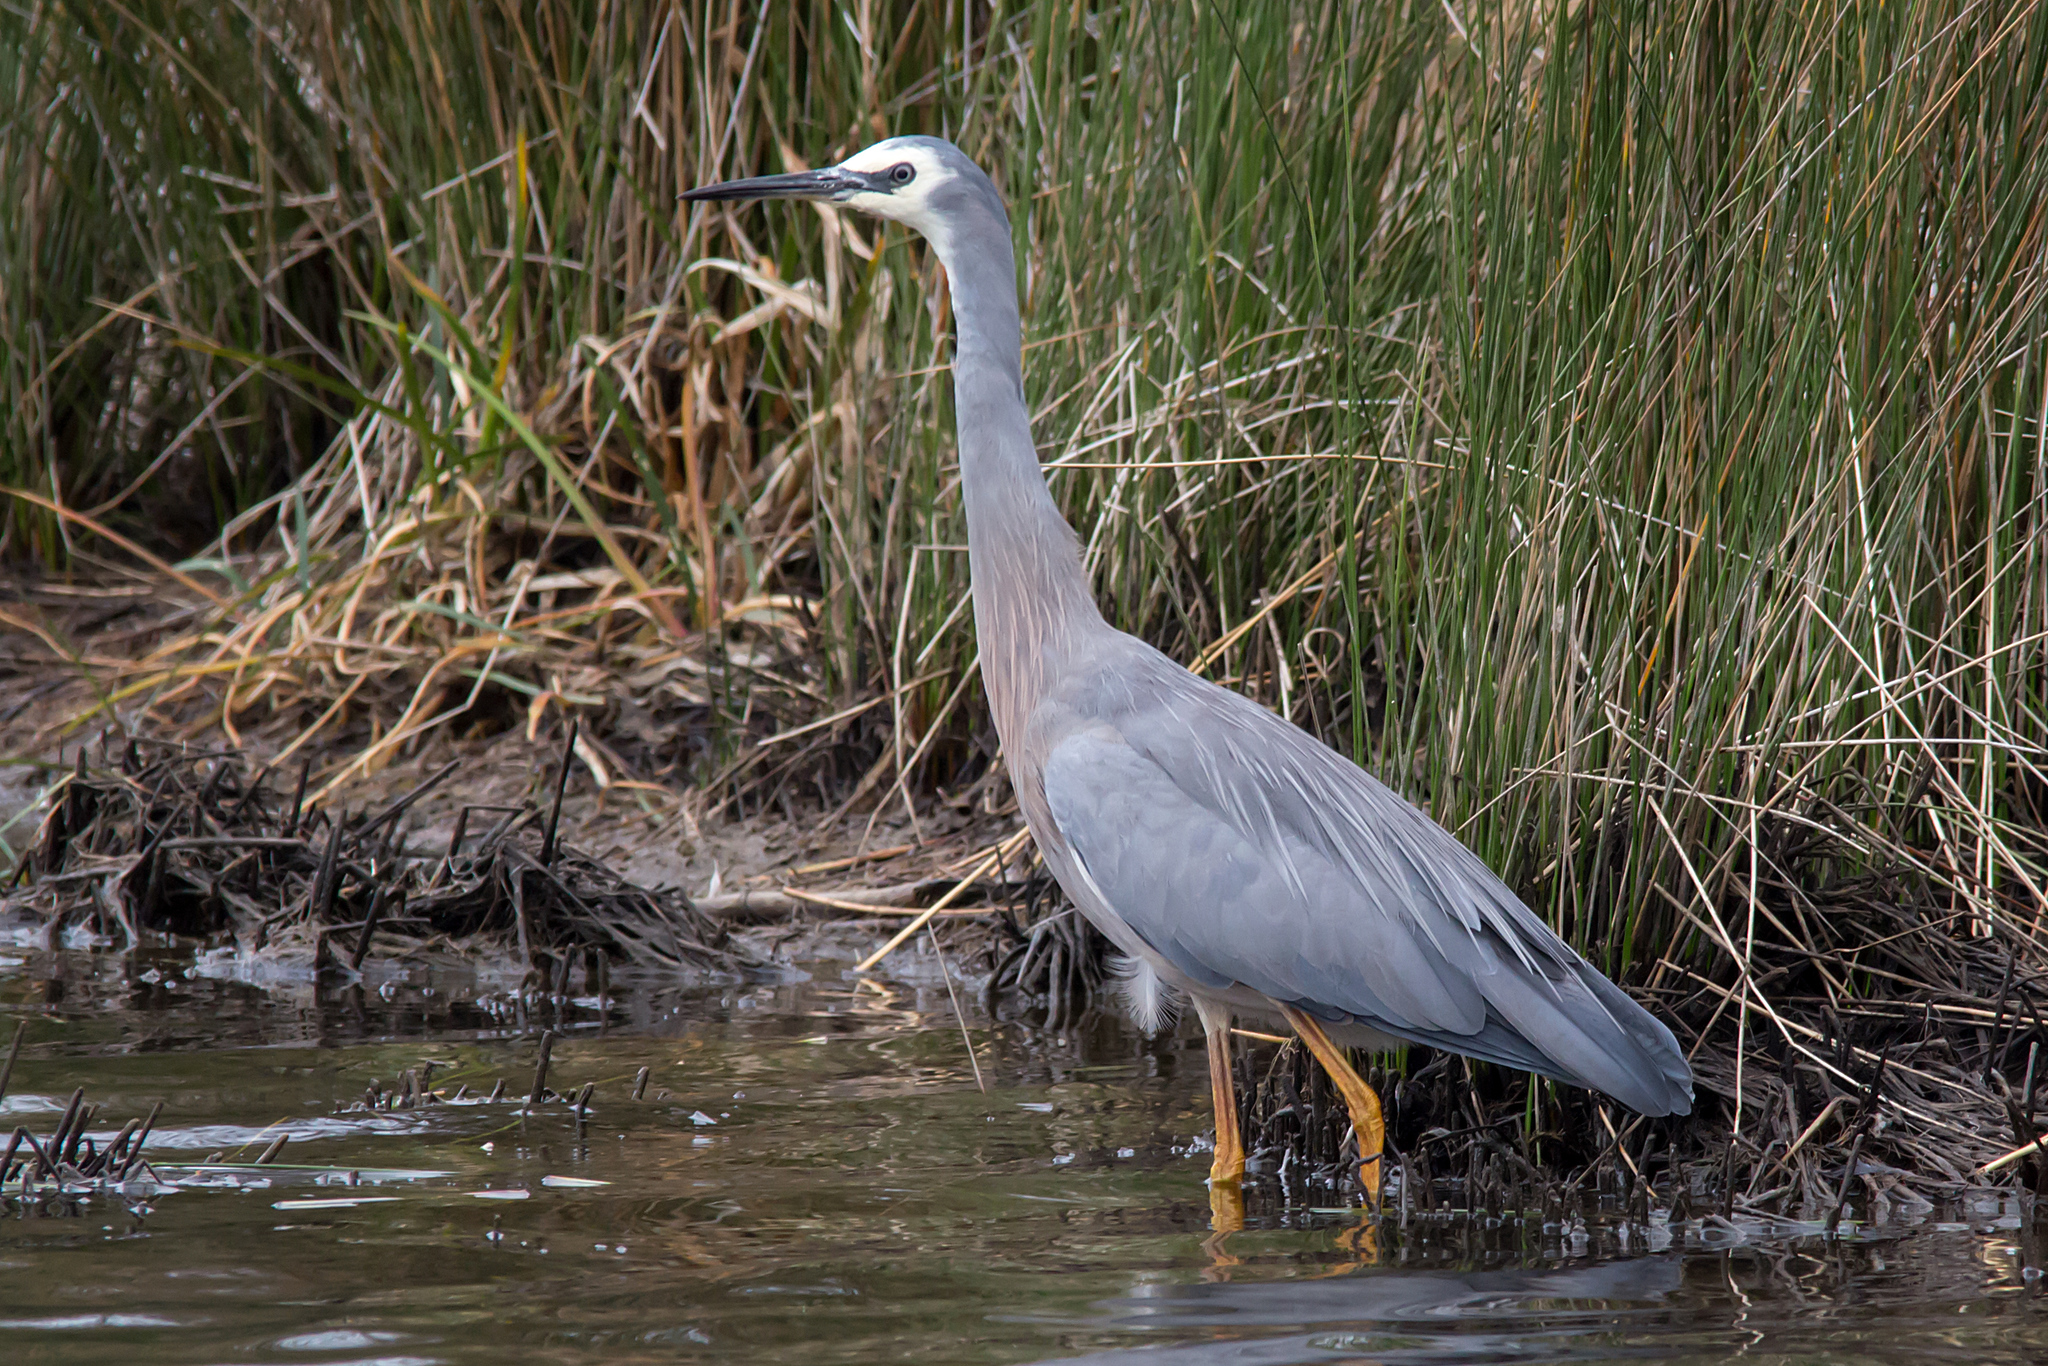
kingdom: Animalia
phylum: Chordata
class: Aves
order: Pelecaniformes
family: Ardeidae
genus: Egretta
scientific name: Egretta novaehollandiae
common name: White-faced heron
